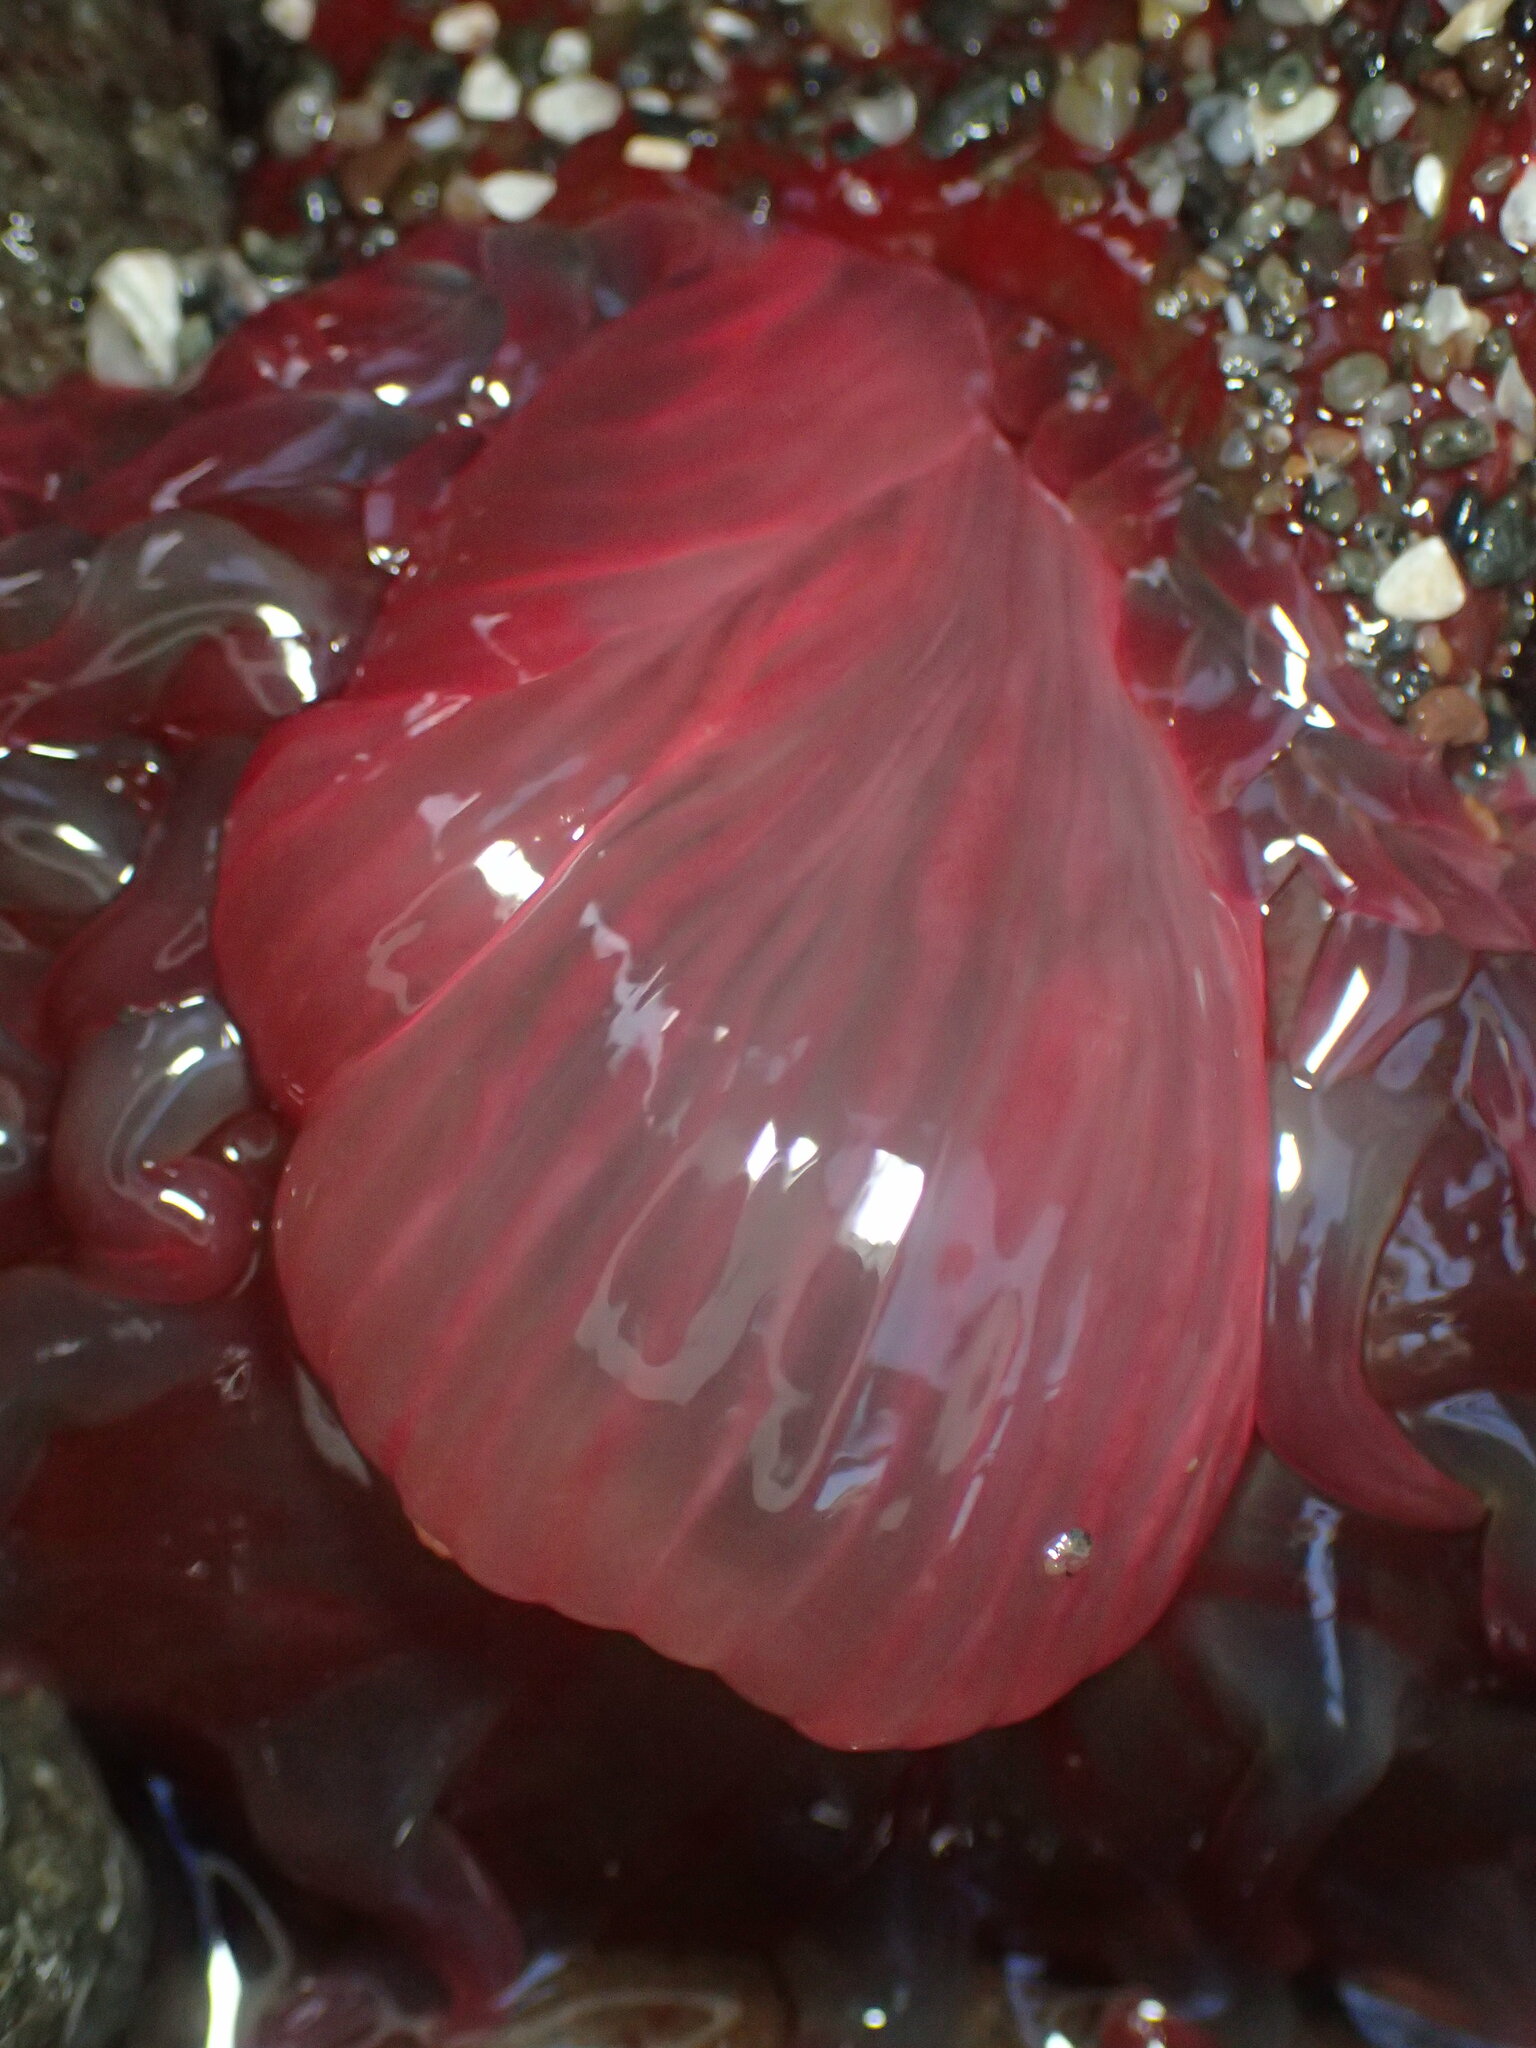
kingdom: Animalia
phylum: Cnidaria
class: Anthozoa
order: Actiniaria
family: Actiniidae
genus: Urticina
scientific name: Urticina grebelnyi
